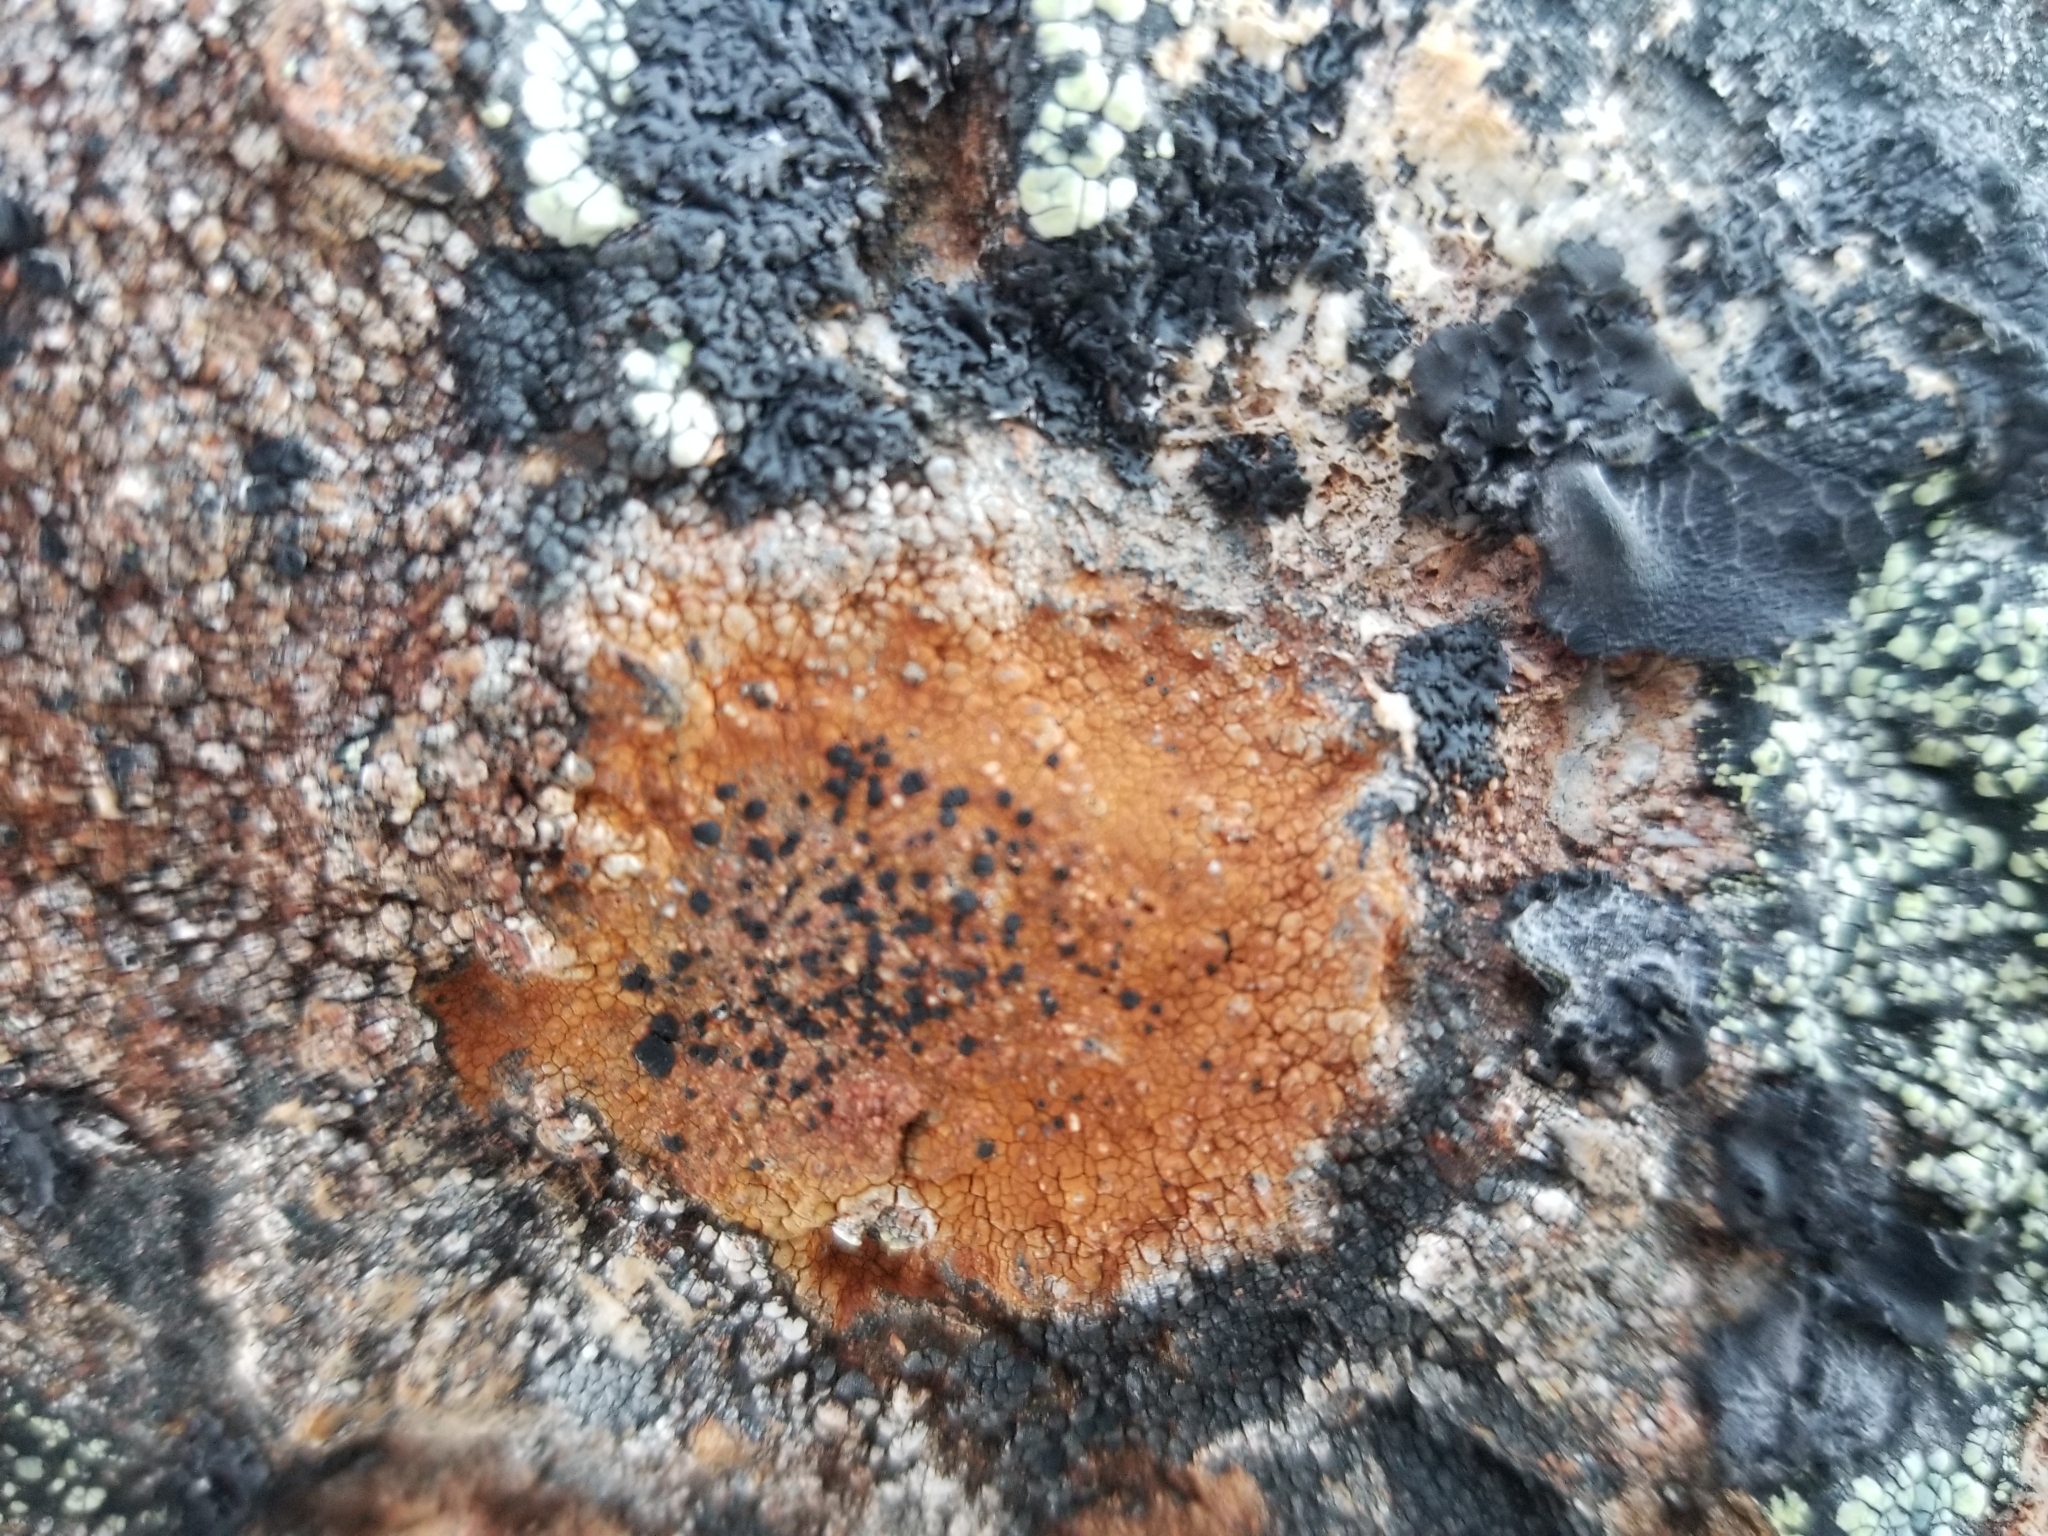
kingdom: Fungi
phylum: Ascomycota
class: Lecanoromycetes
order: Lecideales
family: Lecideaceae
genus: Porpidia
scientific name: Porpidia flavicunda
